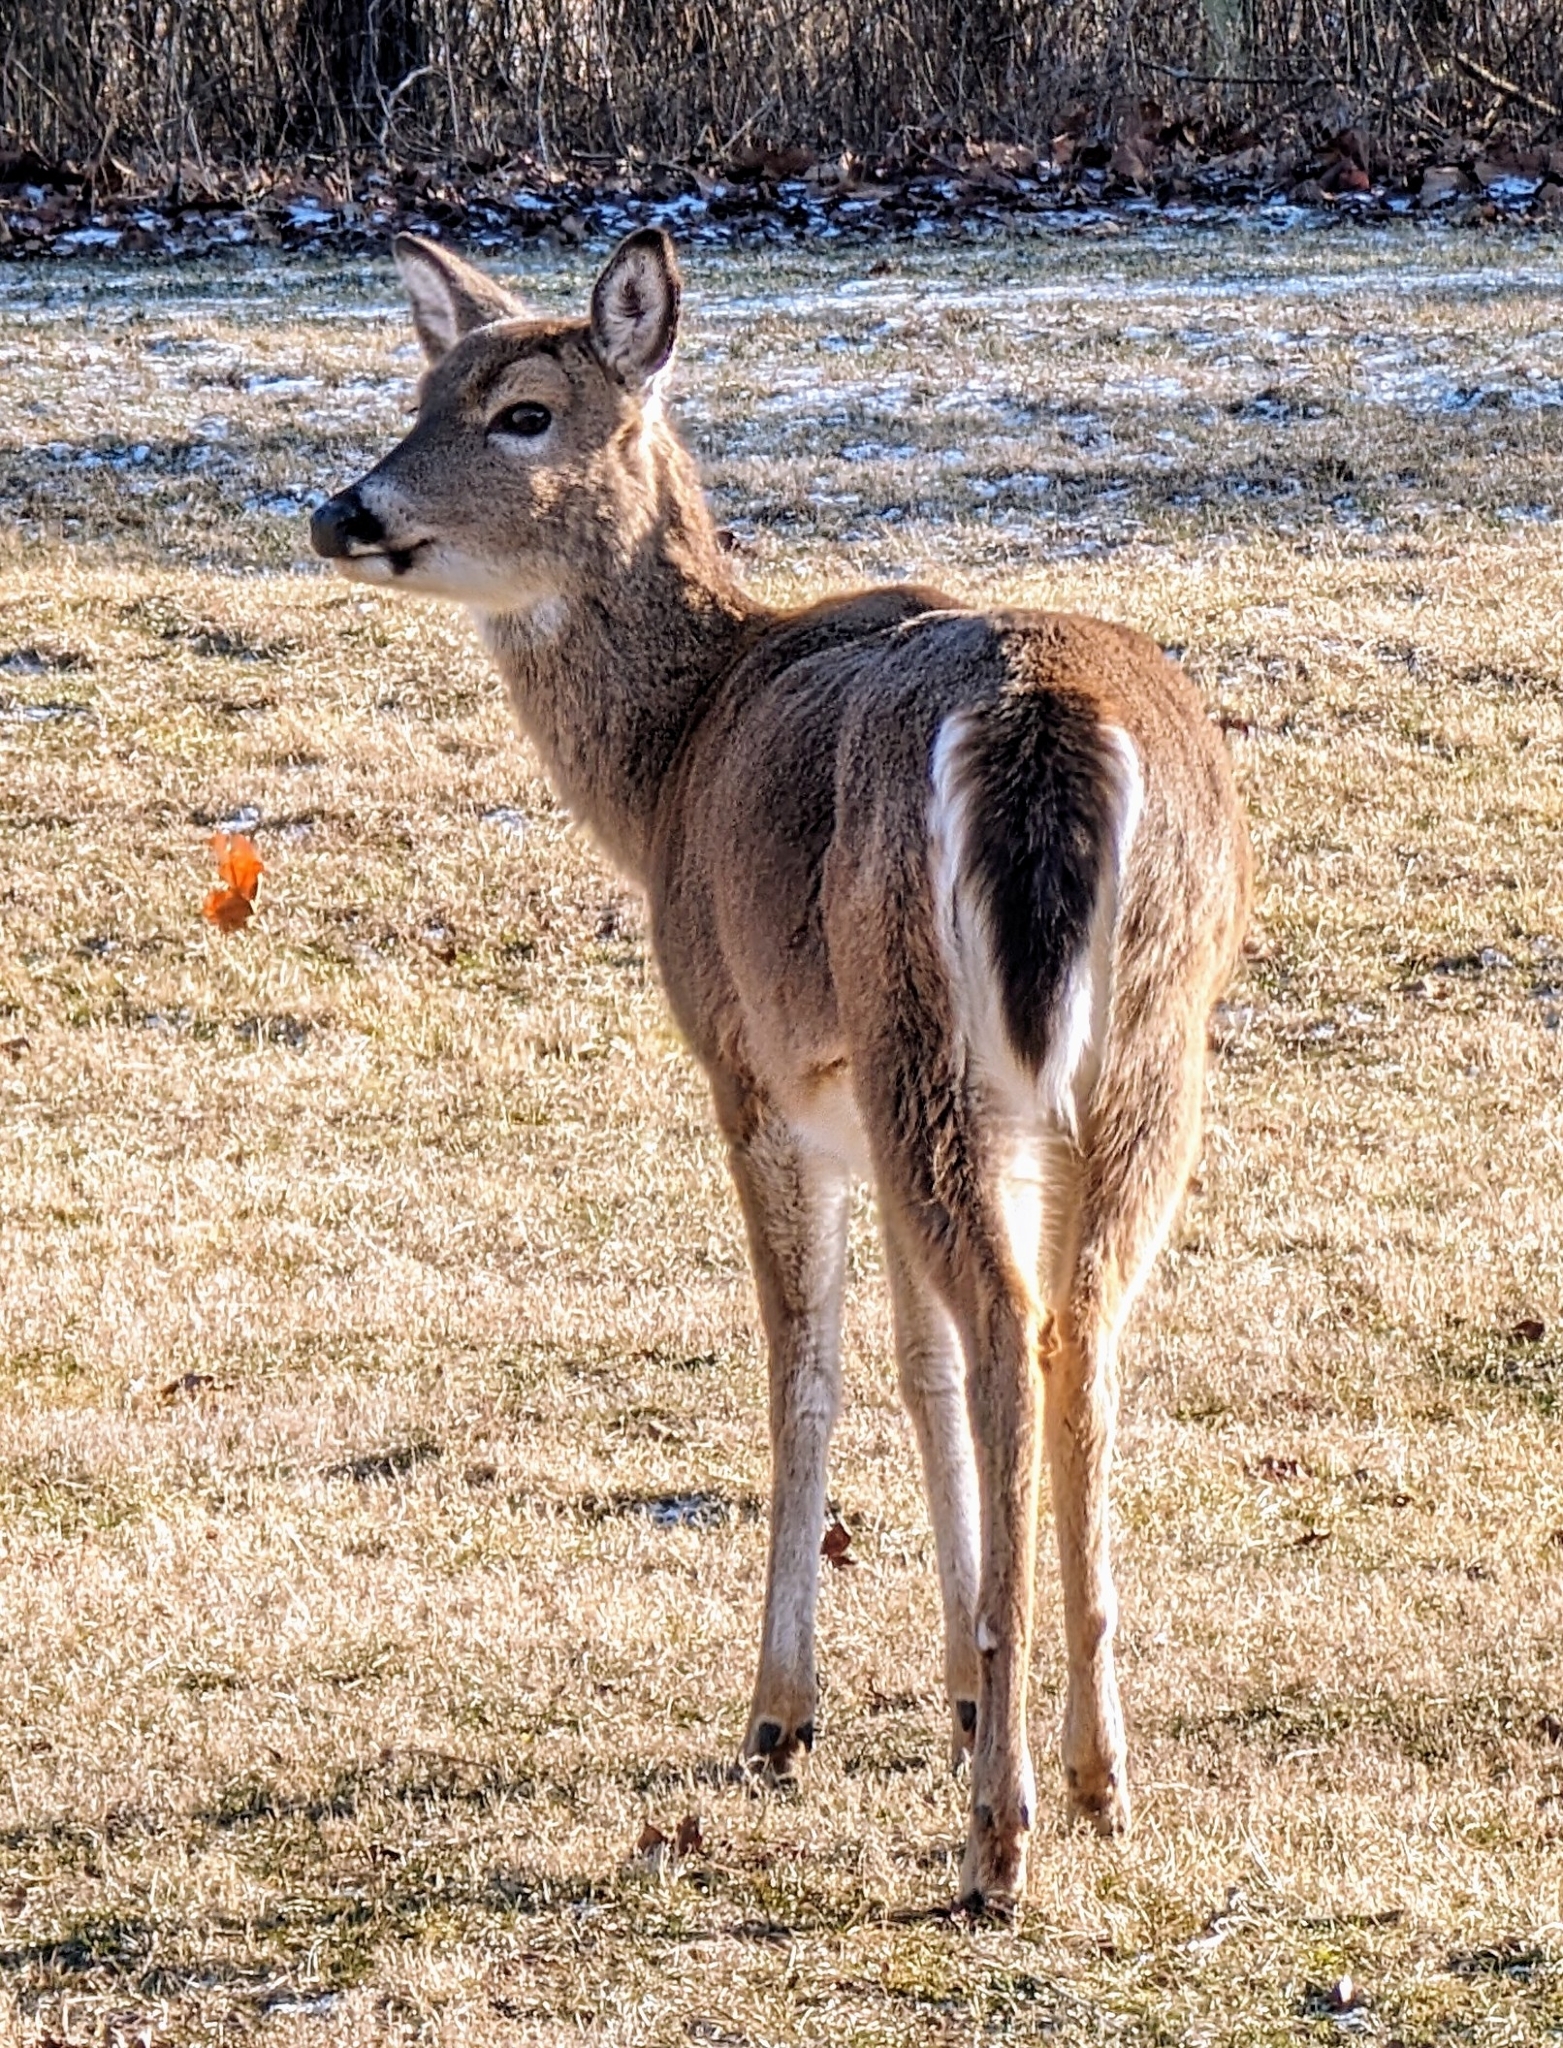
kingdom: Animalia
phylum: Chordata
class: Mammalia
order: Artiodactyla
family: Cervidae
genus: Odocoileus
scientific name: Odocoileus virginianus
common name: White-tailed deer
